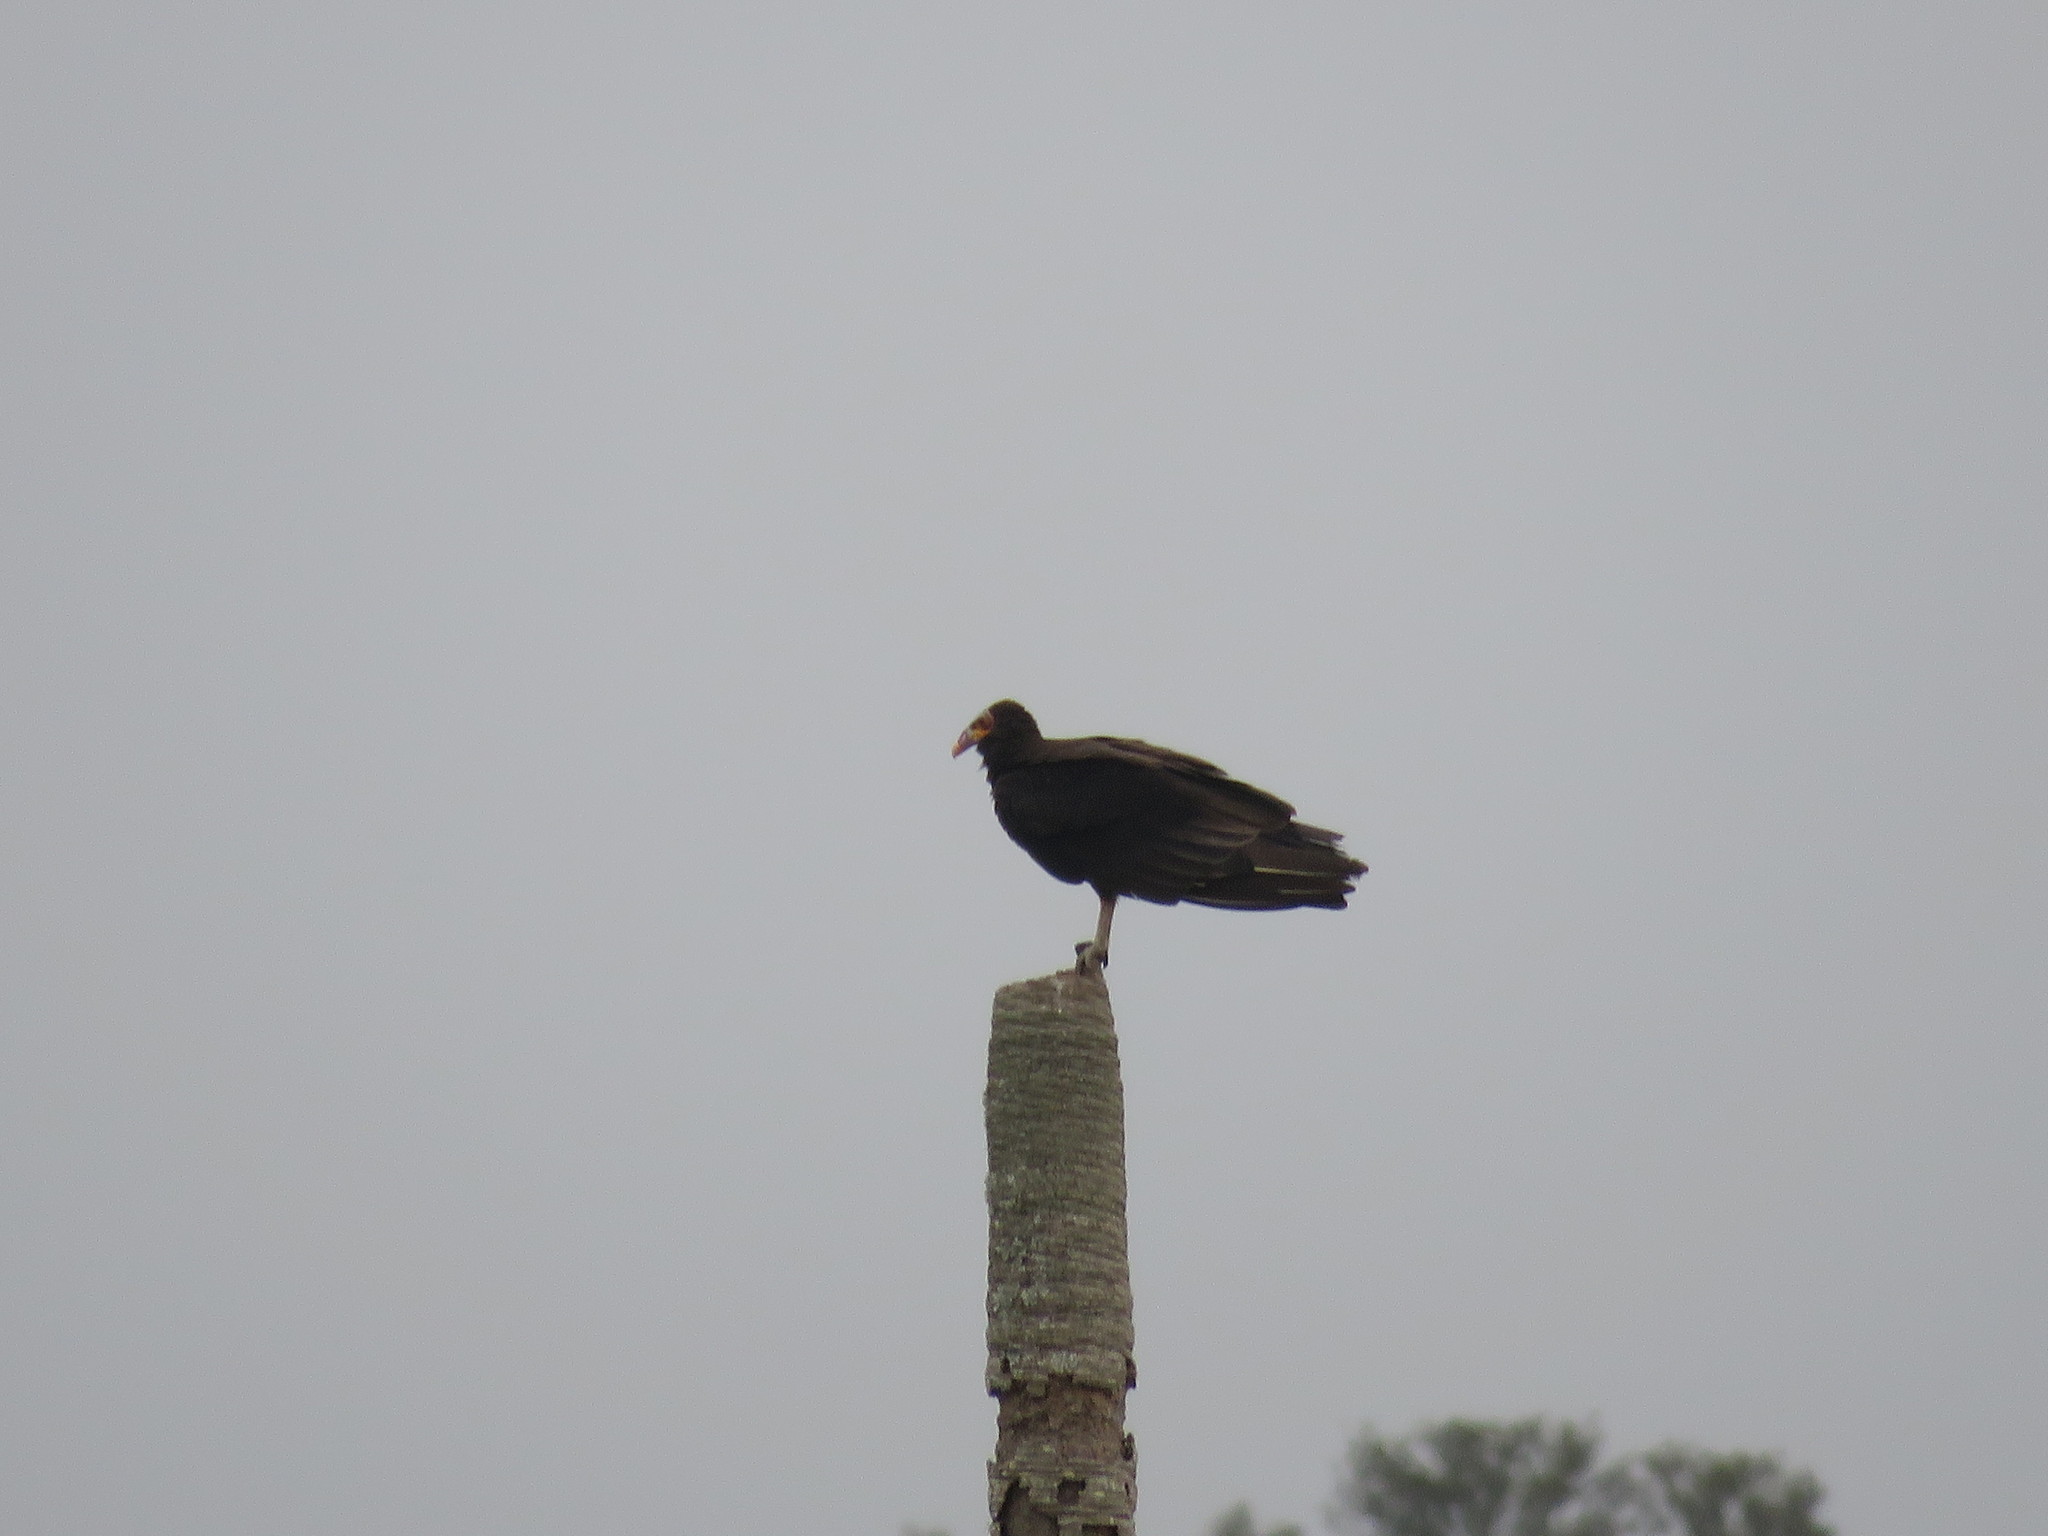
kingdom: Animalia
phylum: Chordata
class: Aves
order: Accipitriformes
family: Cathartidae
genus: Cathartes
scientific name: Cathartes burrovianus
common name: Lesser yellow-headed vulture
